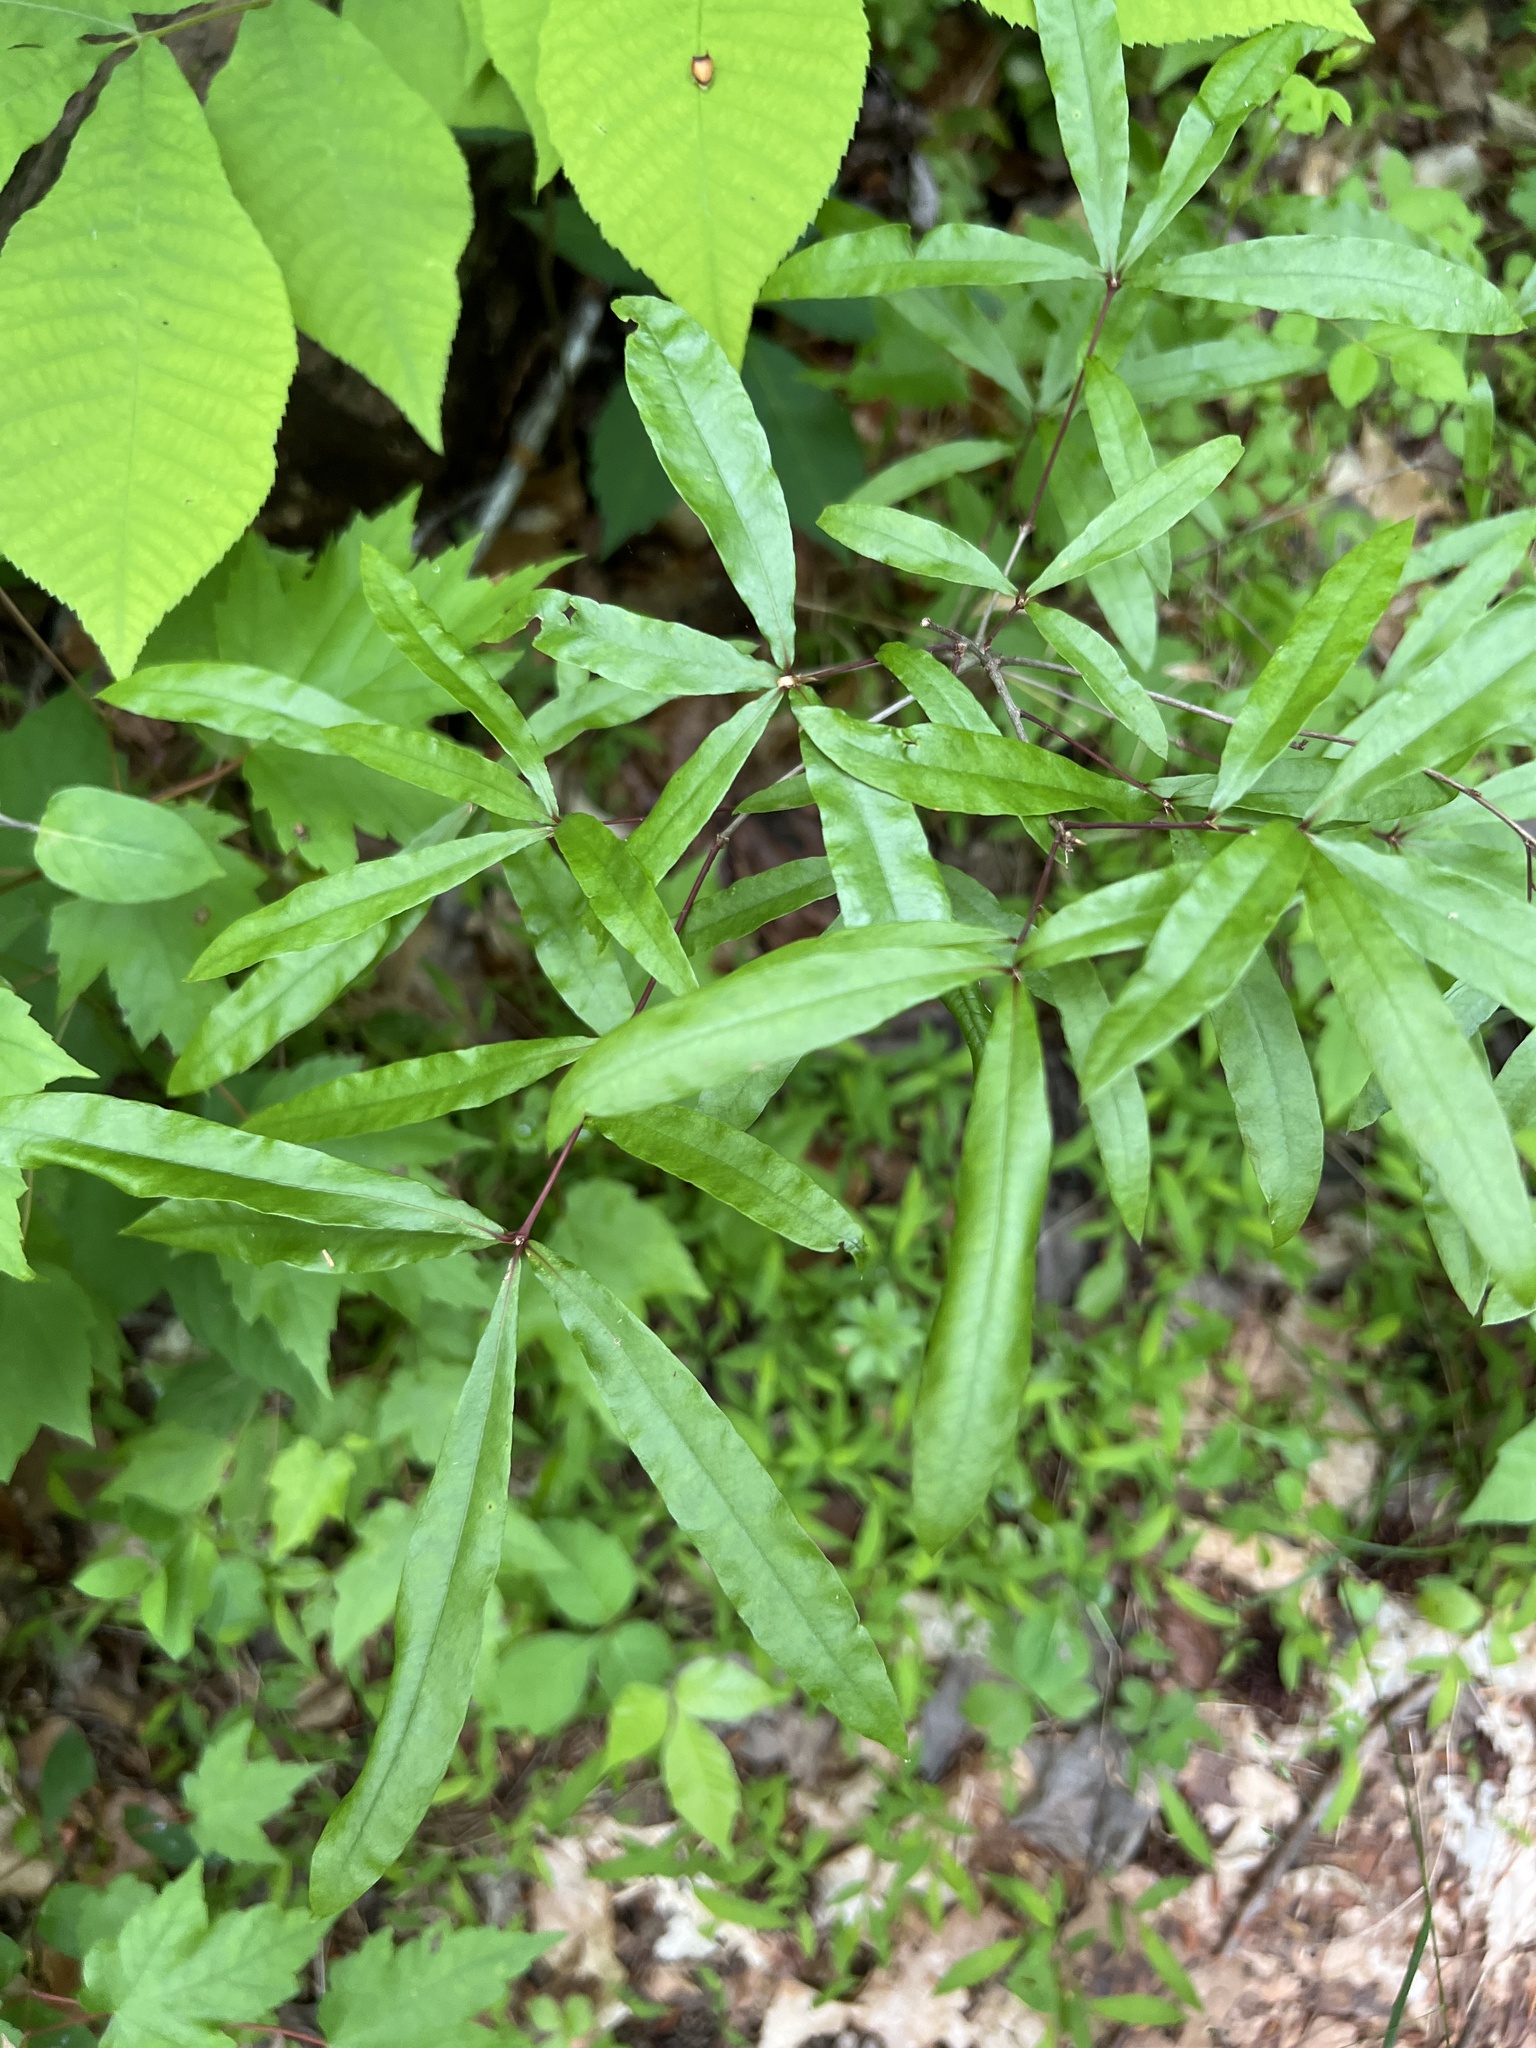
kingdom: Plantae
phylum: Tracheophyta
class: Magnoliopsida
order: Fagales
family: Fagaceae
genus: Quercus
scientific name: Quercus phellos
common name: Willow oak
